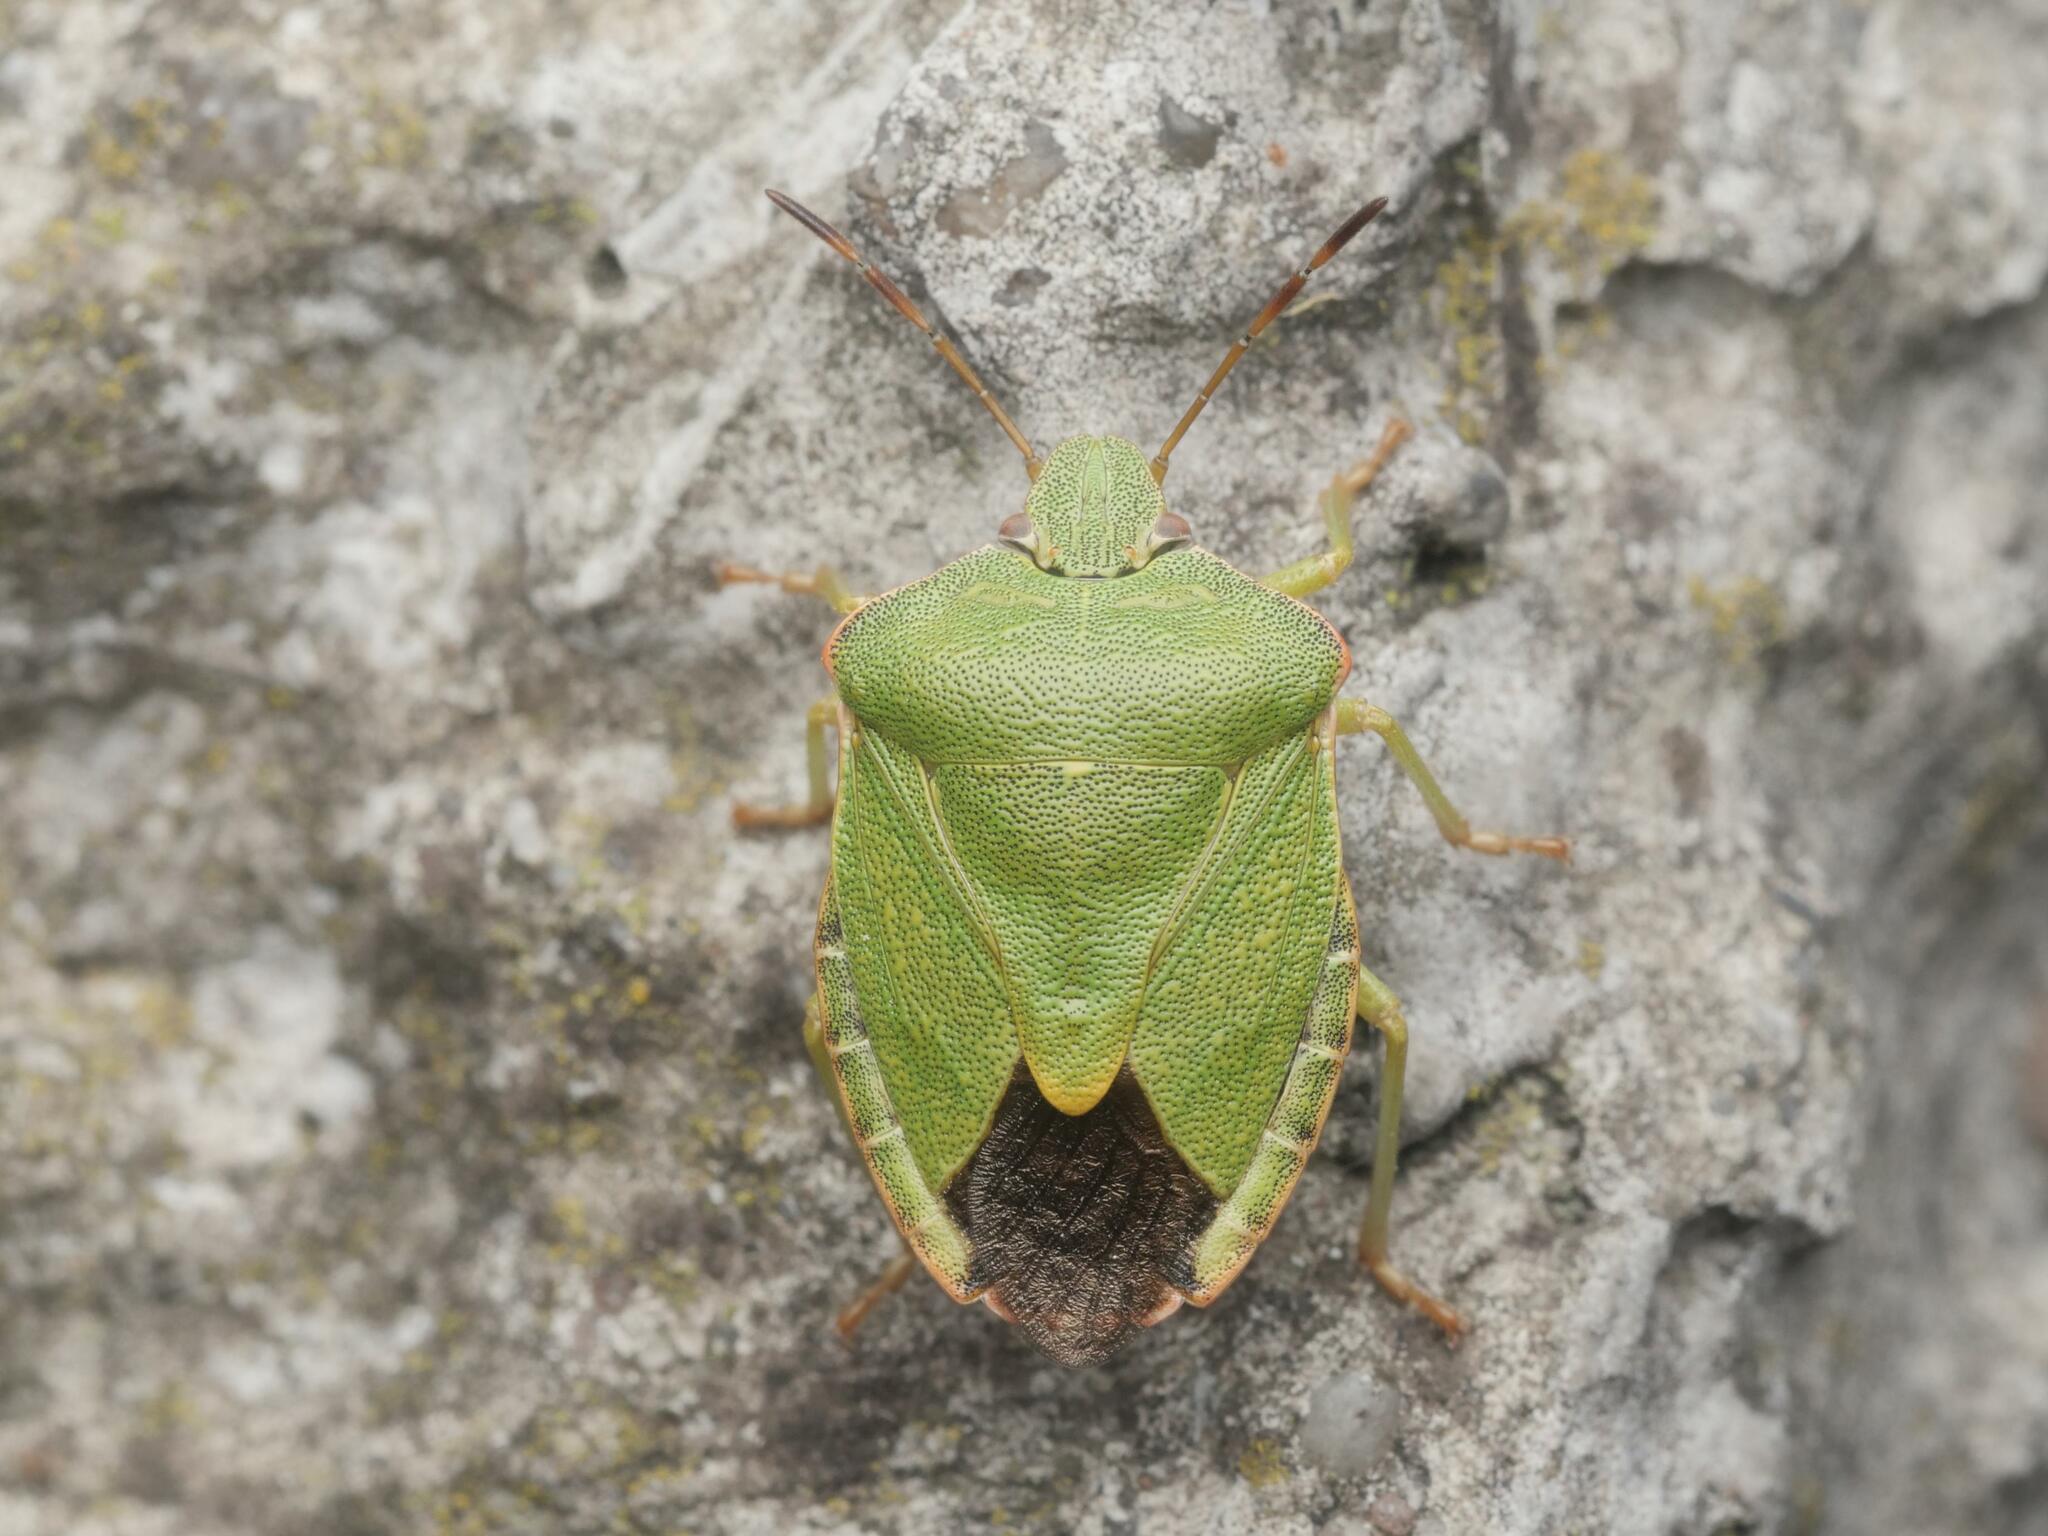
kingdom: Animalia
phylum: Arthropoda
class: Insecta
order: Hemiptera
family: Pentatomidae
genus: Palomena
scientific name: Palomena prasina
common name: Green shieldbug
